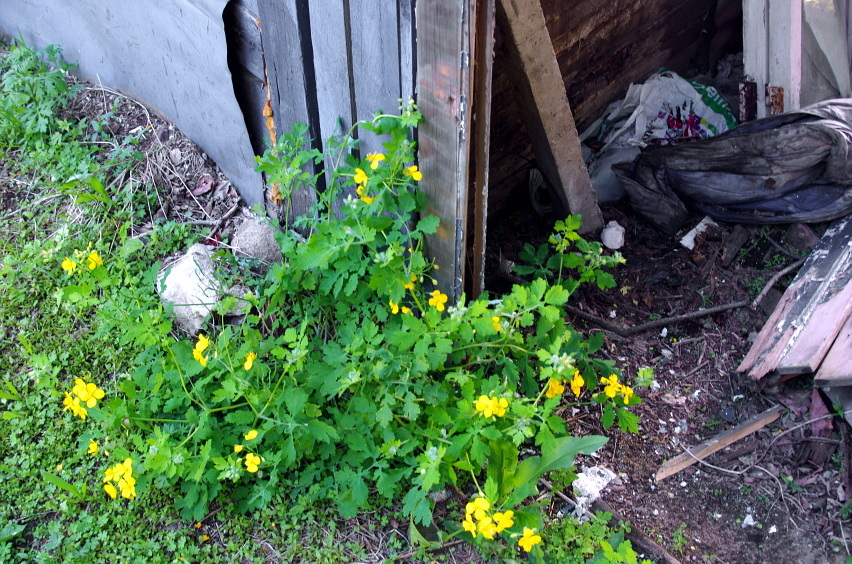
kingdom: Plantae
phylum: Tracheophyta
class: Magnoliopsida
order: Ranunculales
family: Papaveraceae
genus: Chelidonium
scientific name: Chelidonium majus
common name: Greater celandine
